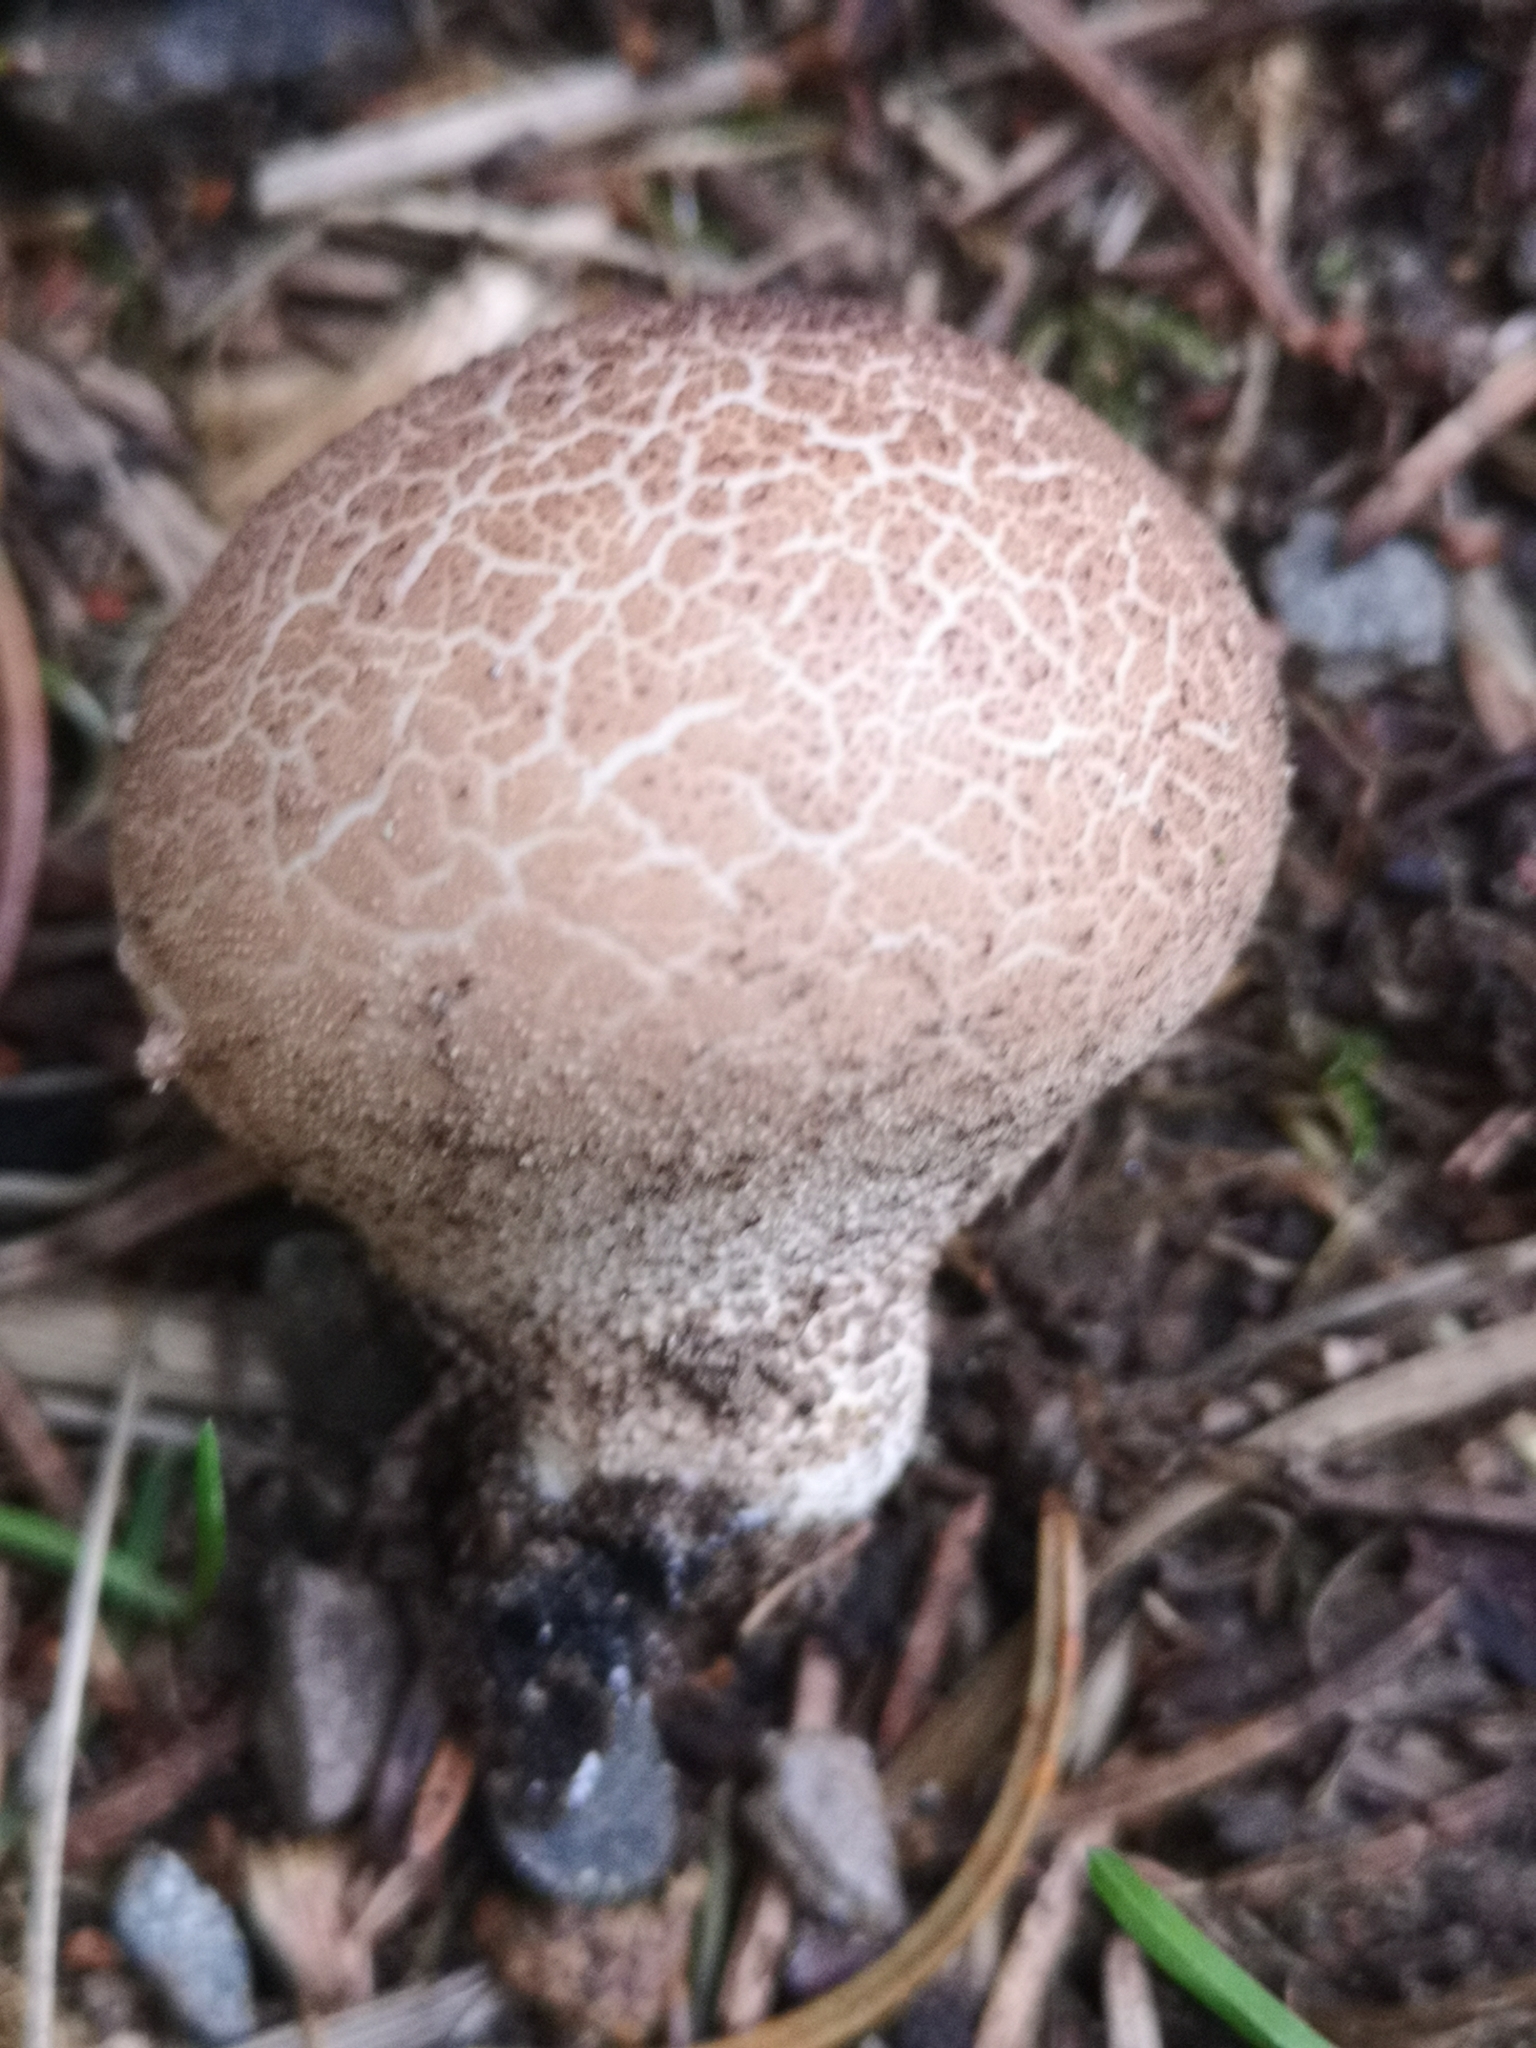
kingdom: Fungi
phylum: Basidiomycota
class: Agaricomycetes
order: Agaricales
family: Lycoperdaceae
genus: Apioperdon
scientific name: Apioperdon pyriforme
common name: Pear-shaped puffball
